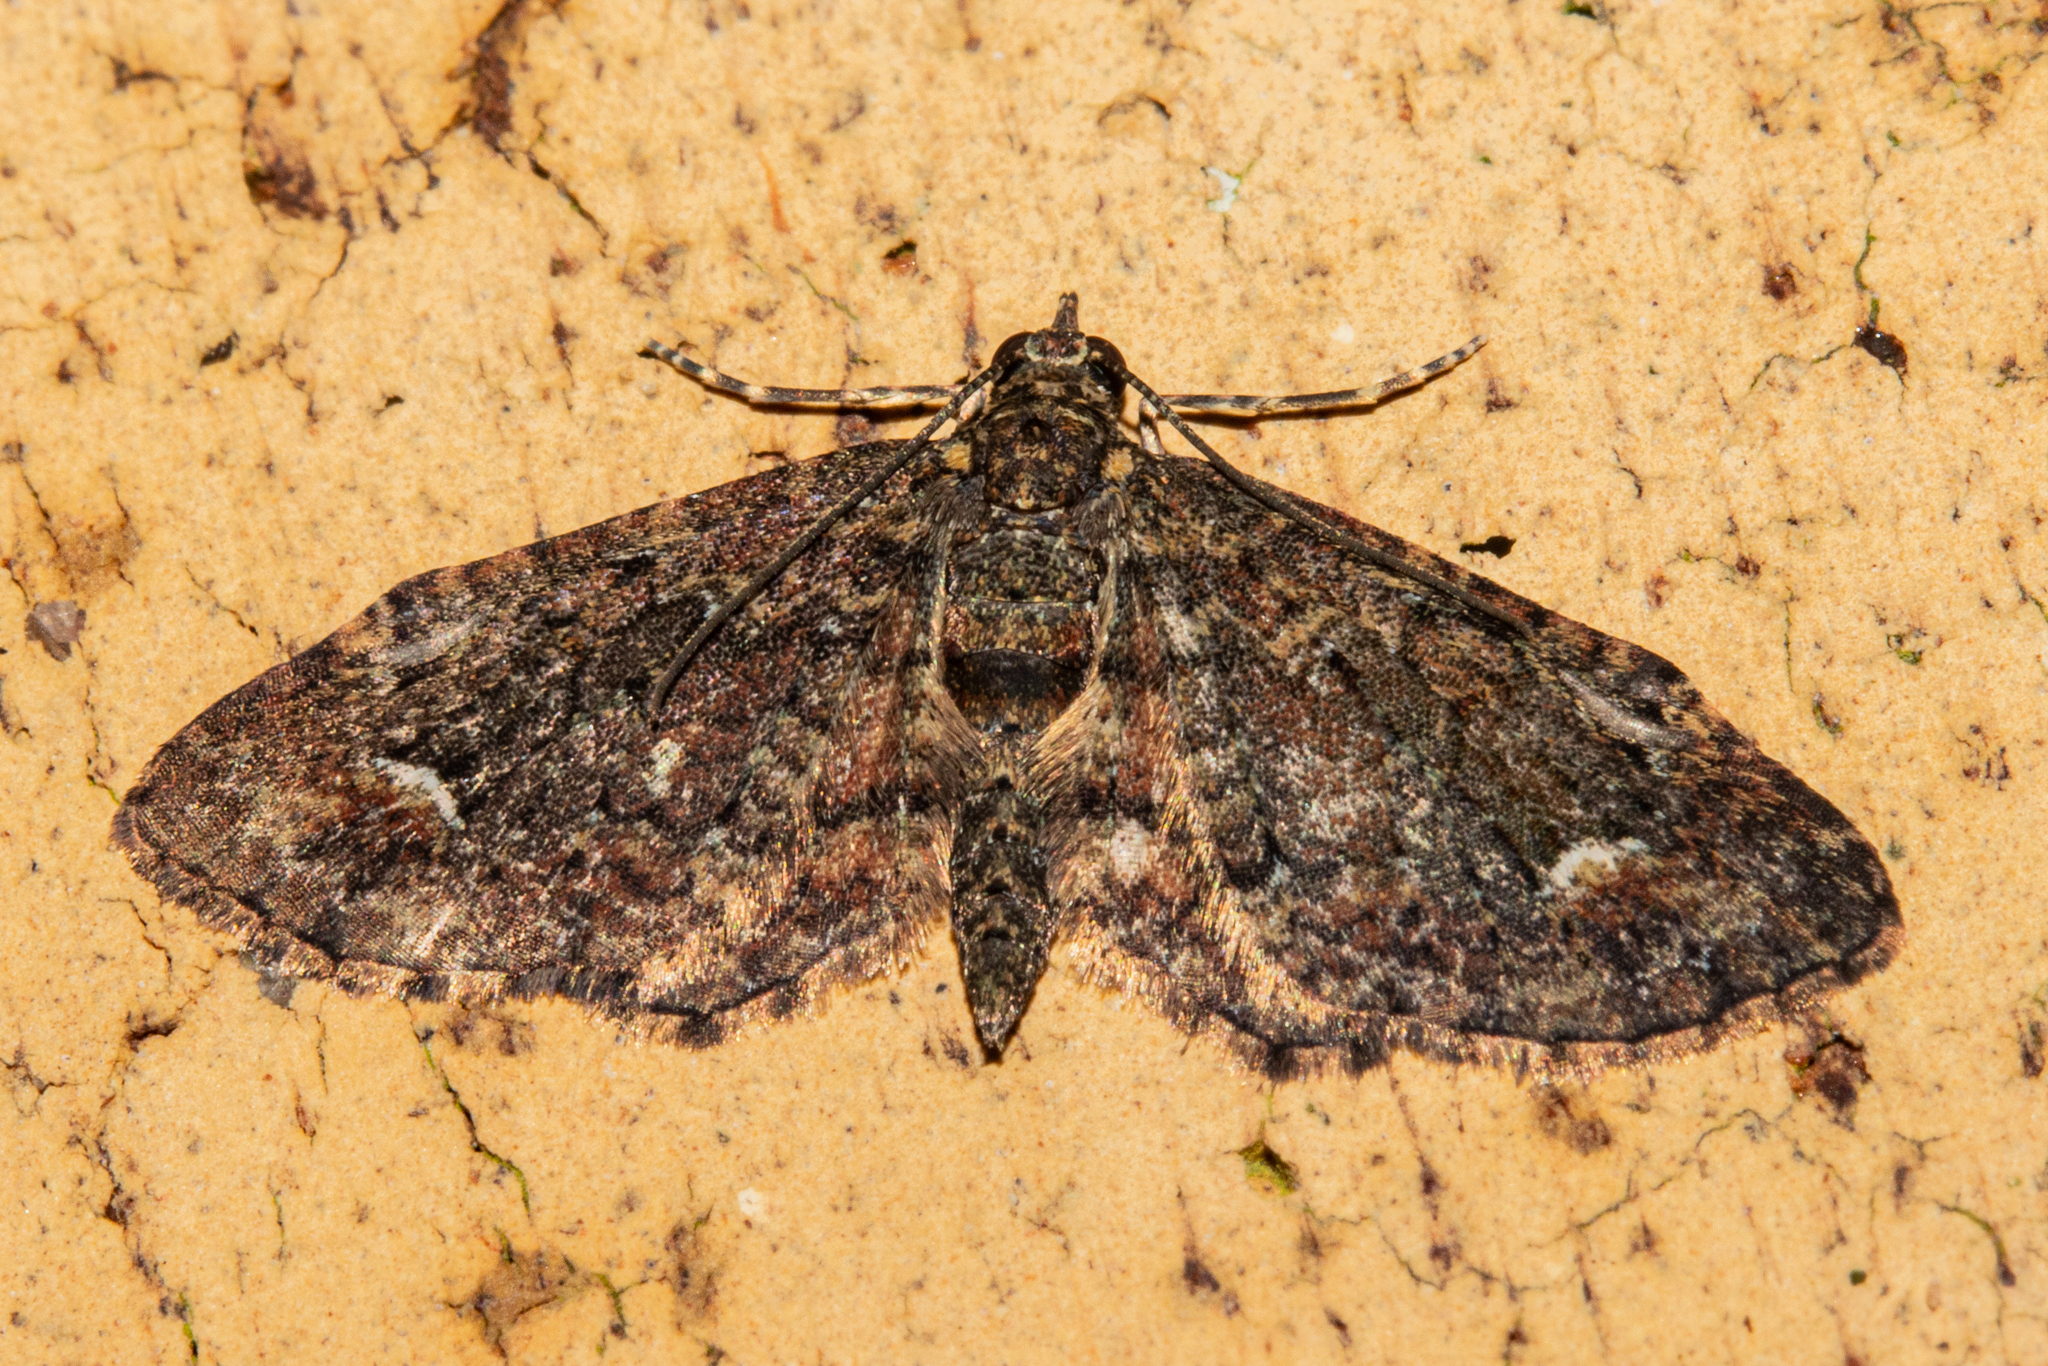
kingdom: Animalia
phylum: Arthropoda
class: Insecta
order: Lepidoptera
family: Geometridae
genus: Pasiphilodes
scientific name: Pasiphilodes testulata
